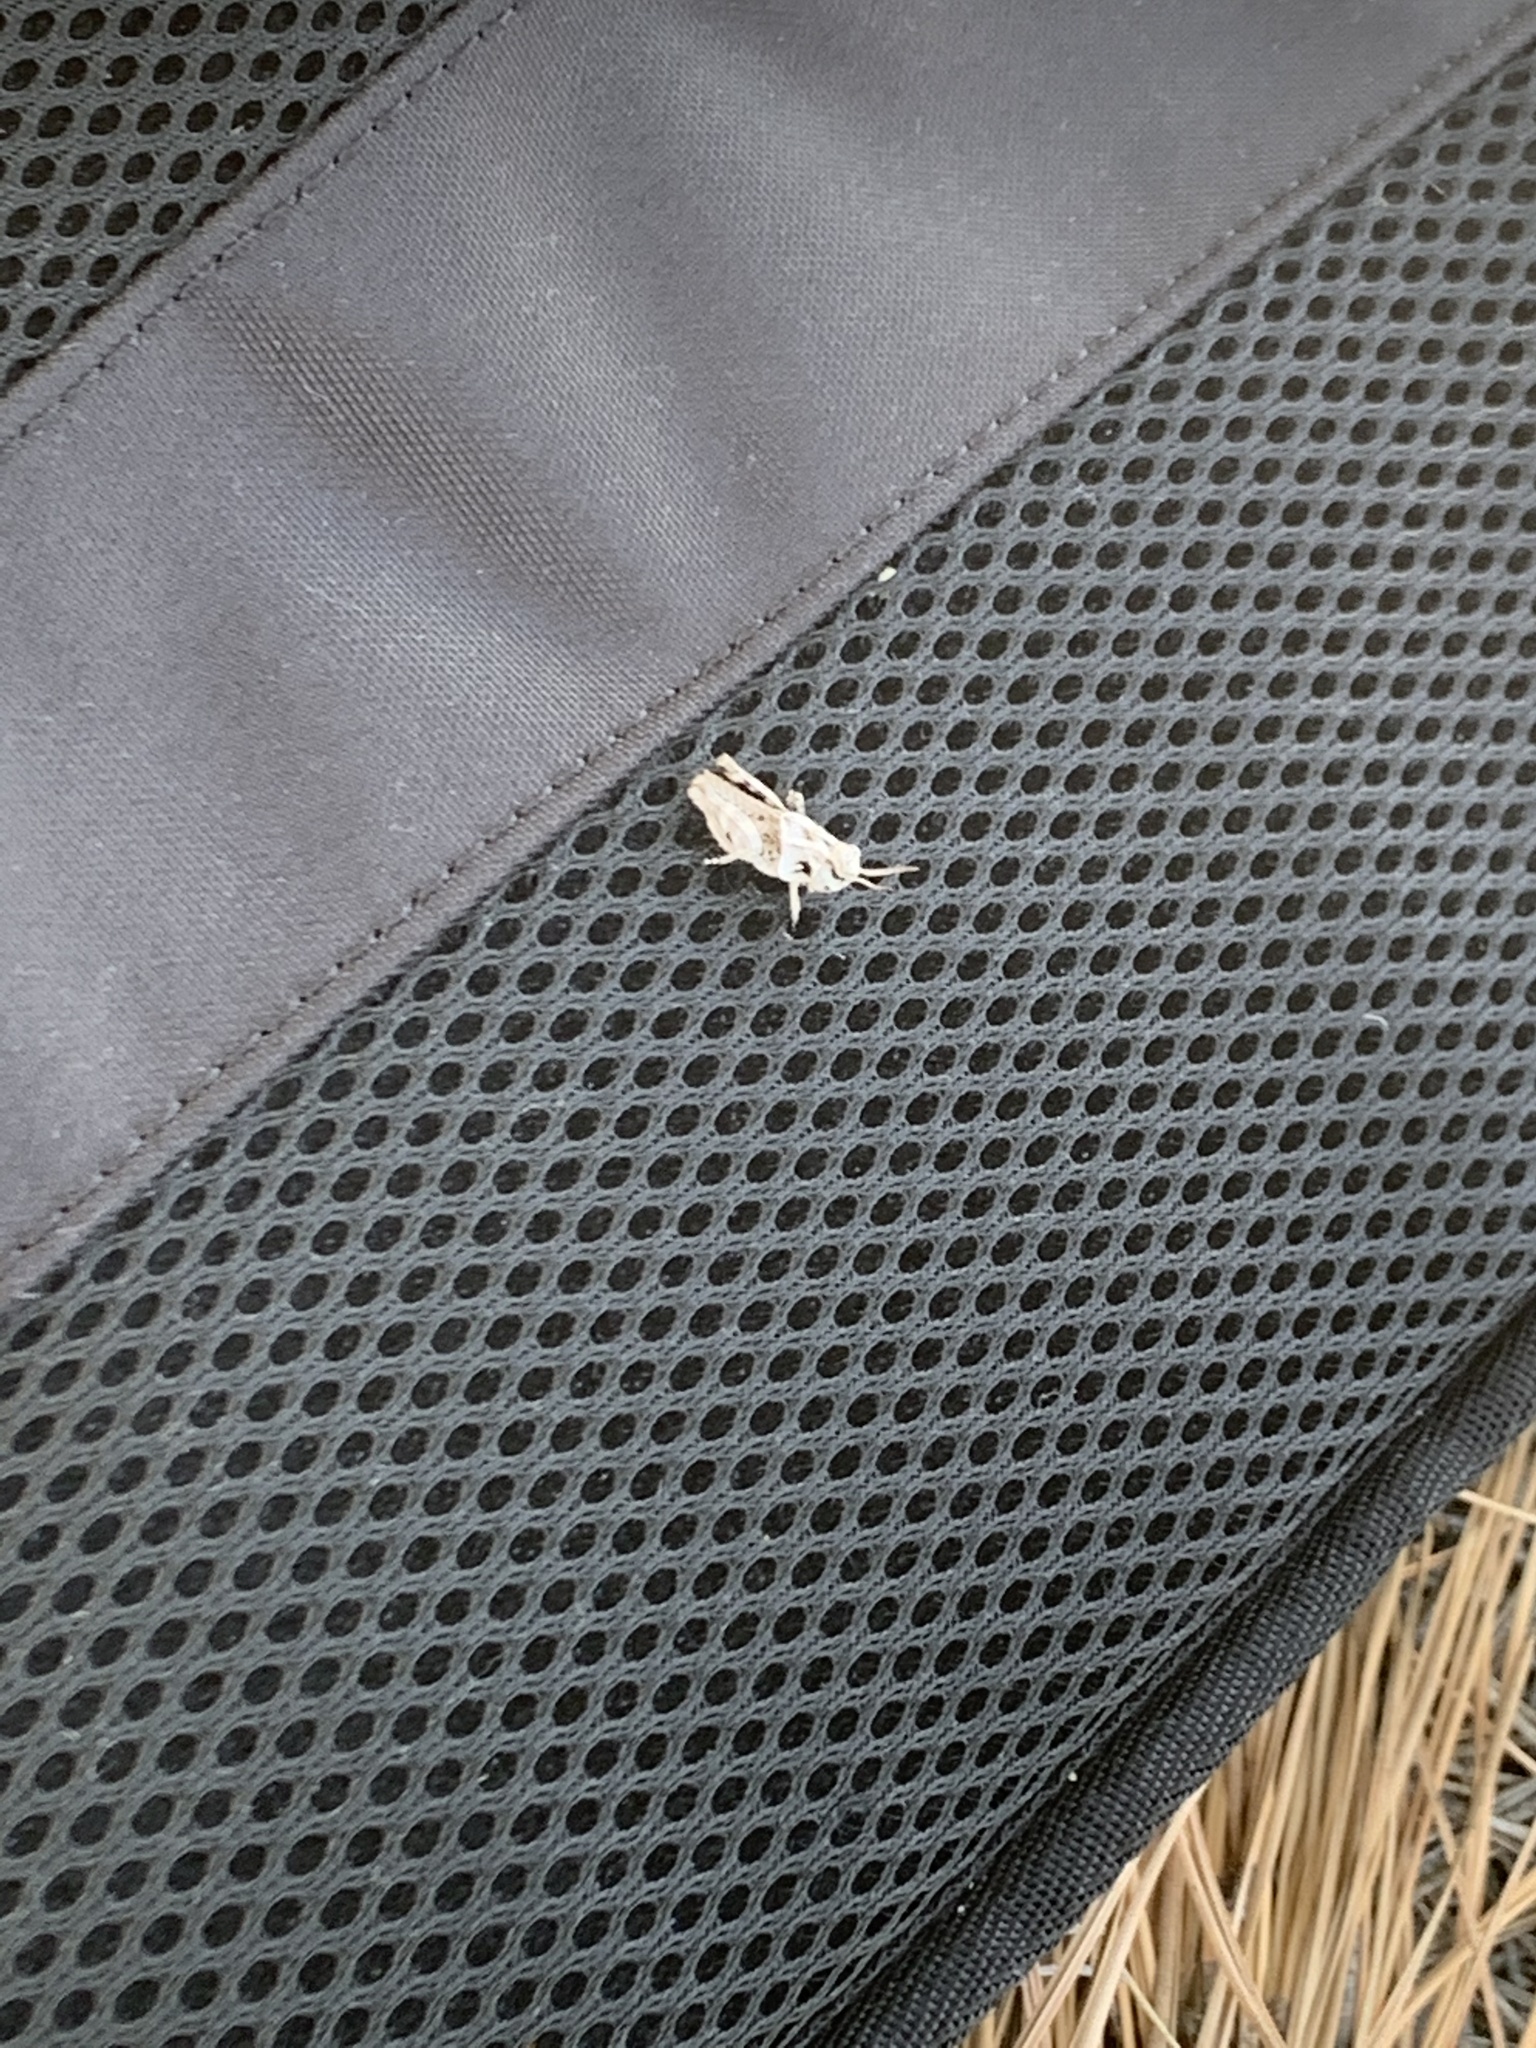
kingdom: Animalia
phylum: Arthropoda
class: Insecta
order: Orthoptera
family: Acrididae
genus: Camnula
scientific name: Camnula pellucida
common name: Clear-winged grasshopper
